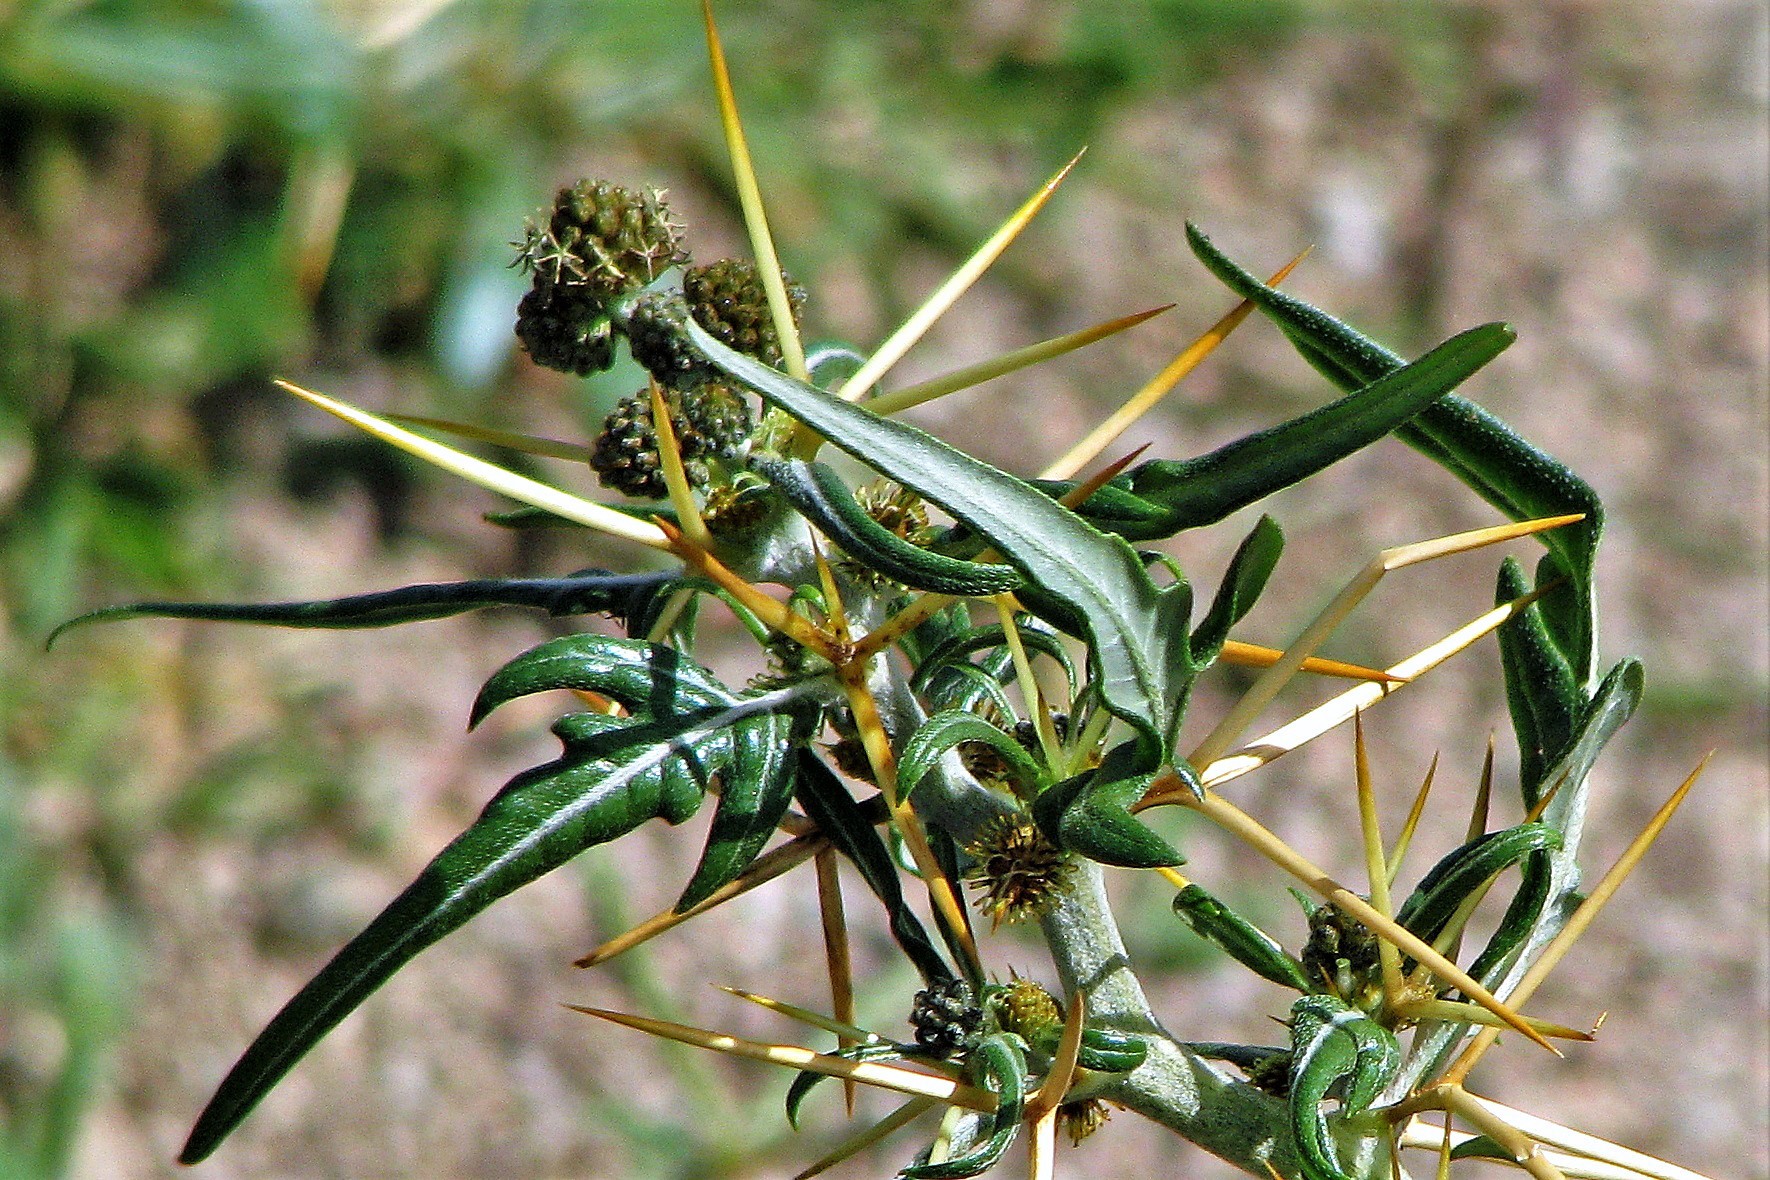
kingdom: Plantae
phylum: Tracheophyta
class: Magnoliopsida
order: Asterales
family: Asteraceae
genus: Xanthium
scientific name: Xanthium spinosum
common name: Spiny cocklebur
